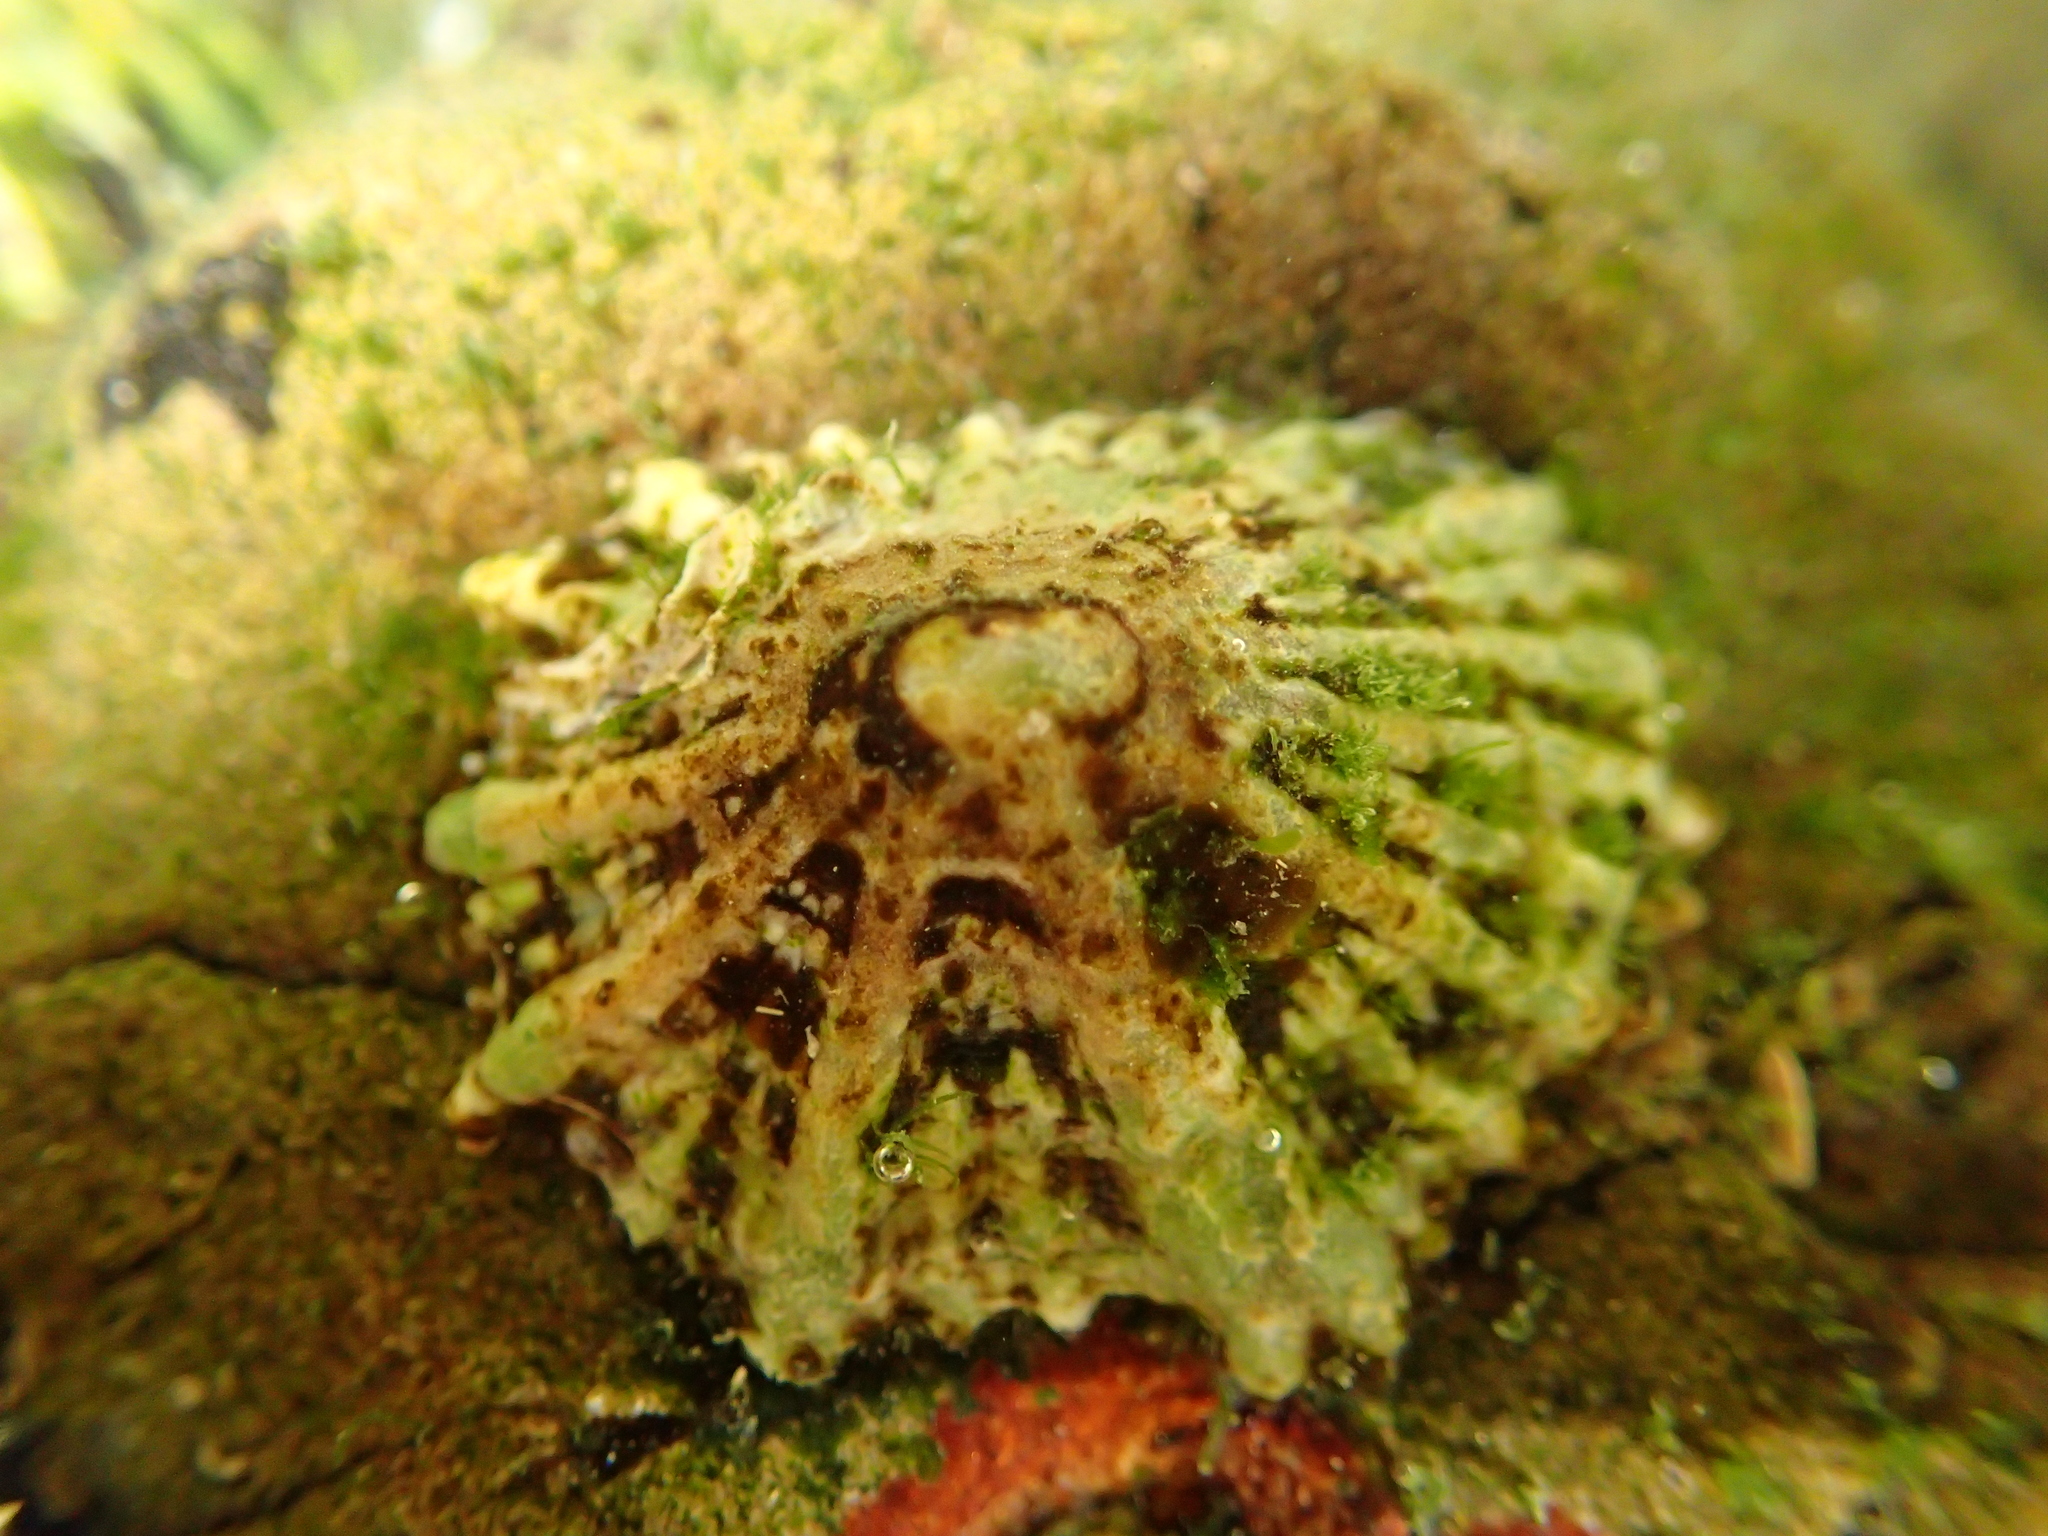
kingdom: Animalia
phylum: Mollusca
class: Gastropoda
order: Siphonariida
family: Siphonariidae
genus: Siphonaria
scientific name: Siphonaria australis
